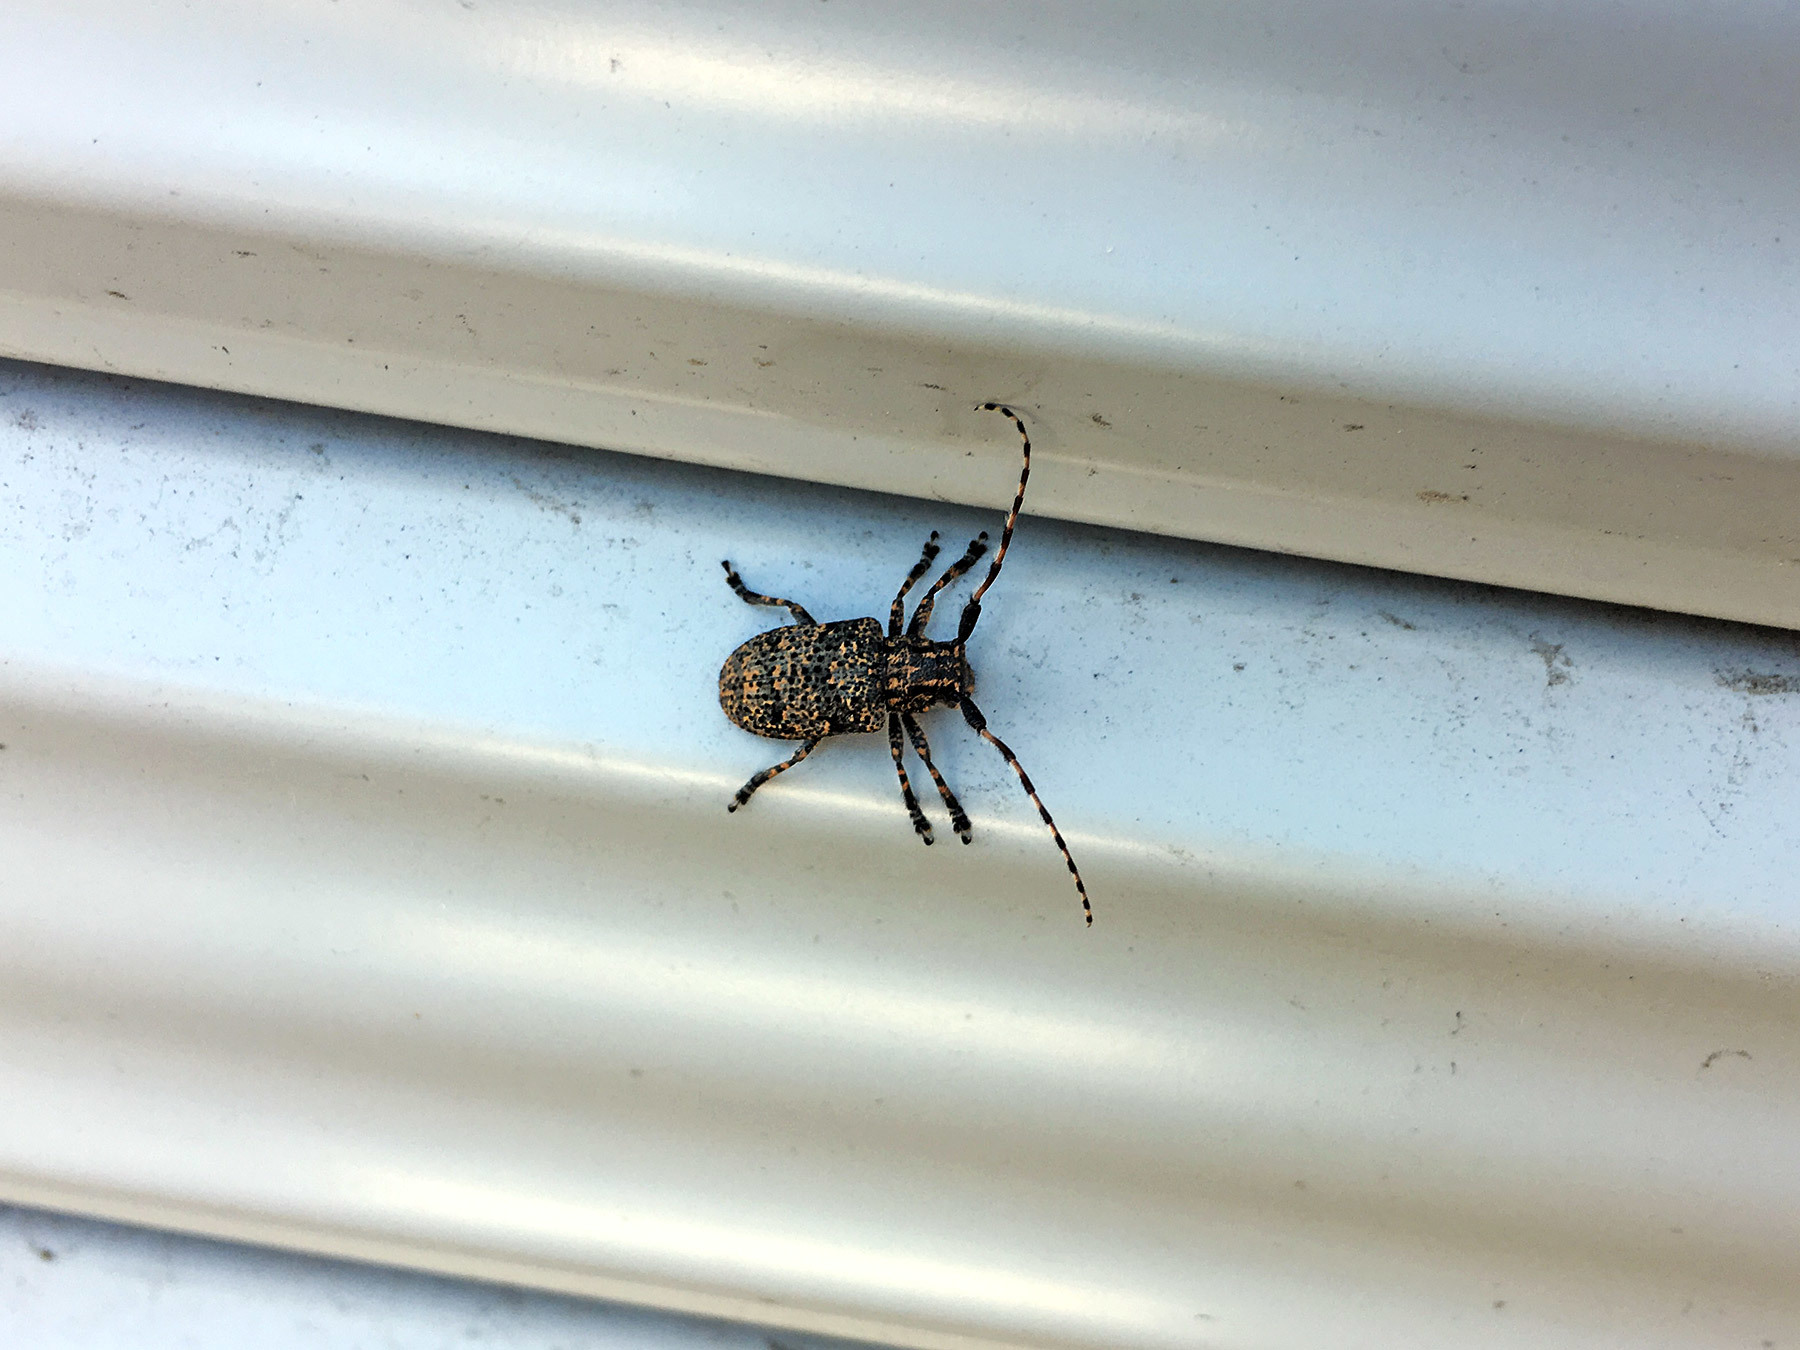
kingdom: Animalia
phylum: Arthropoda
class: Insecta
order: Coleoptera
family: Cerambycidae
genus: Mesosa
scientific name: Mesosa myops
